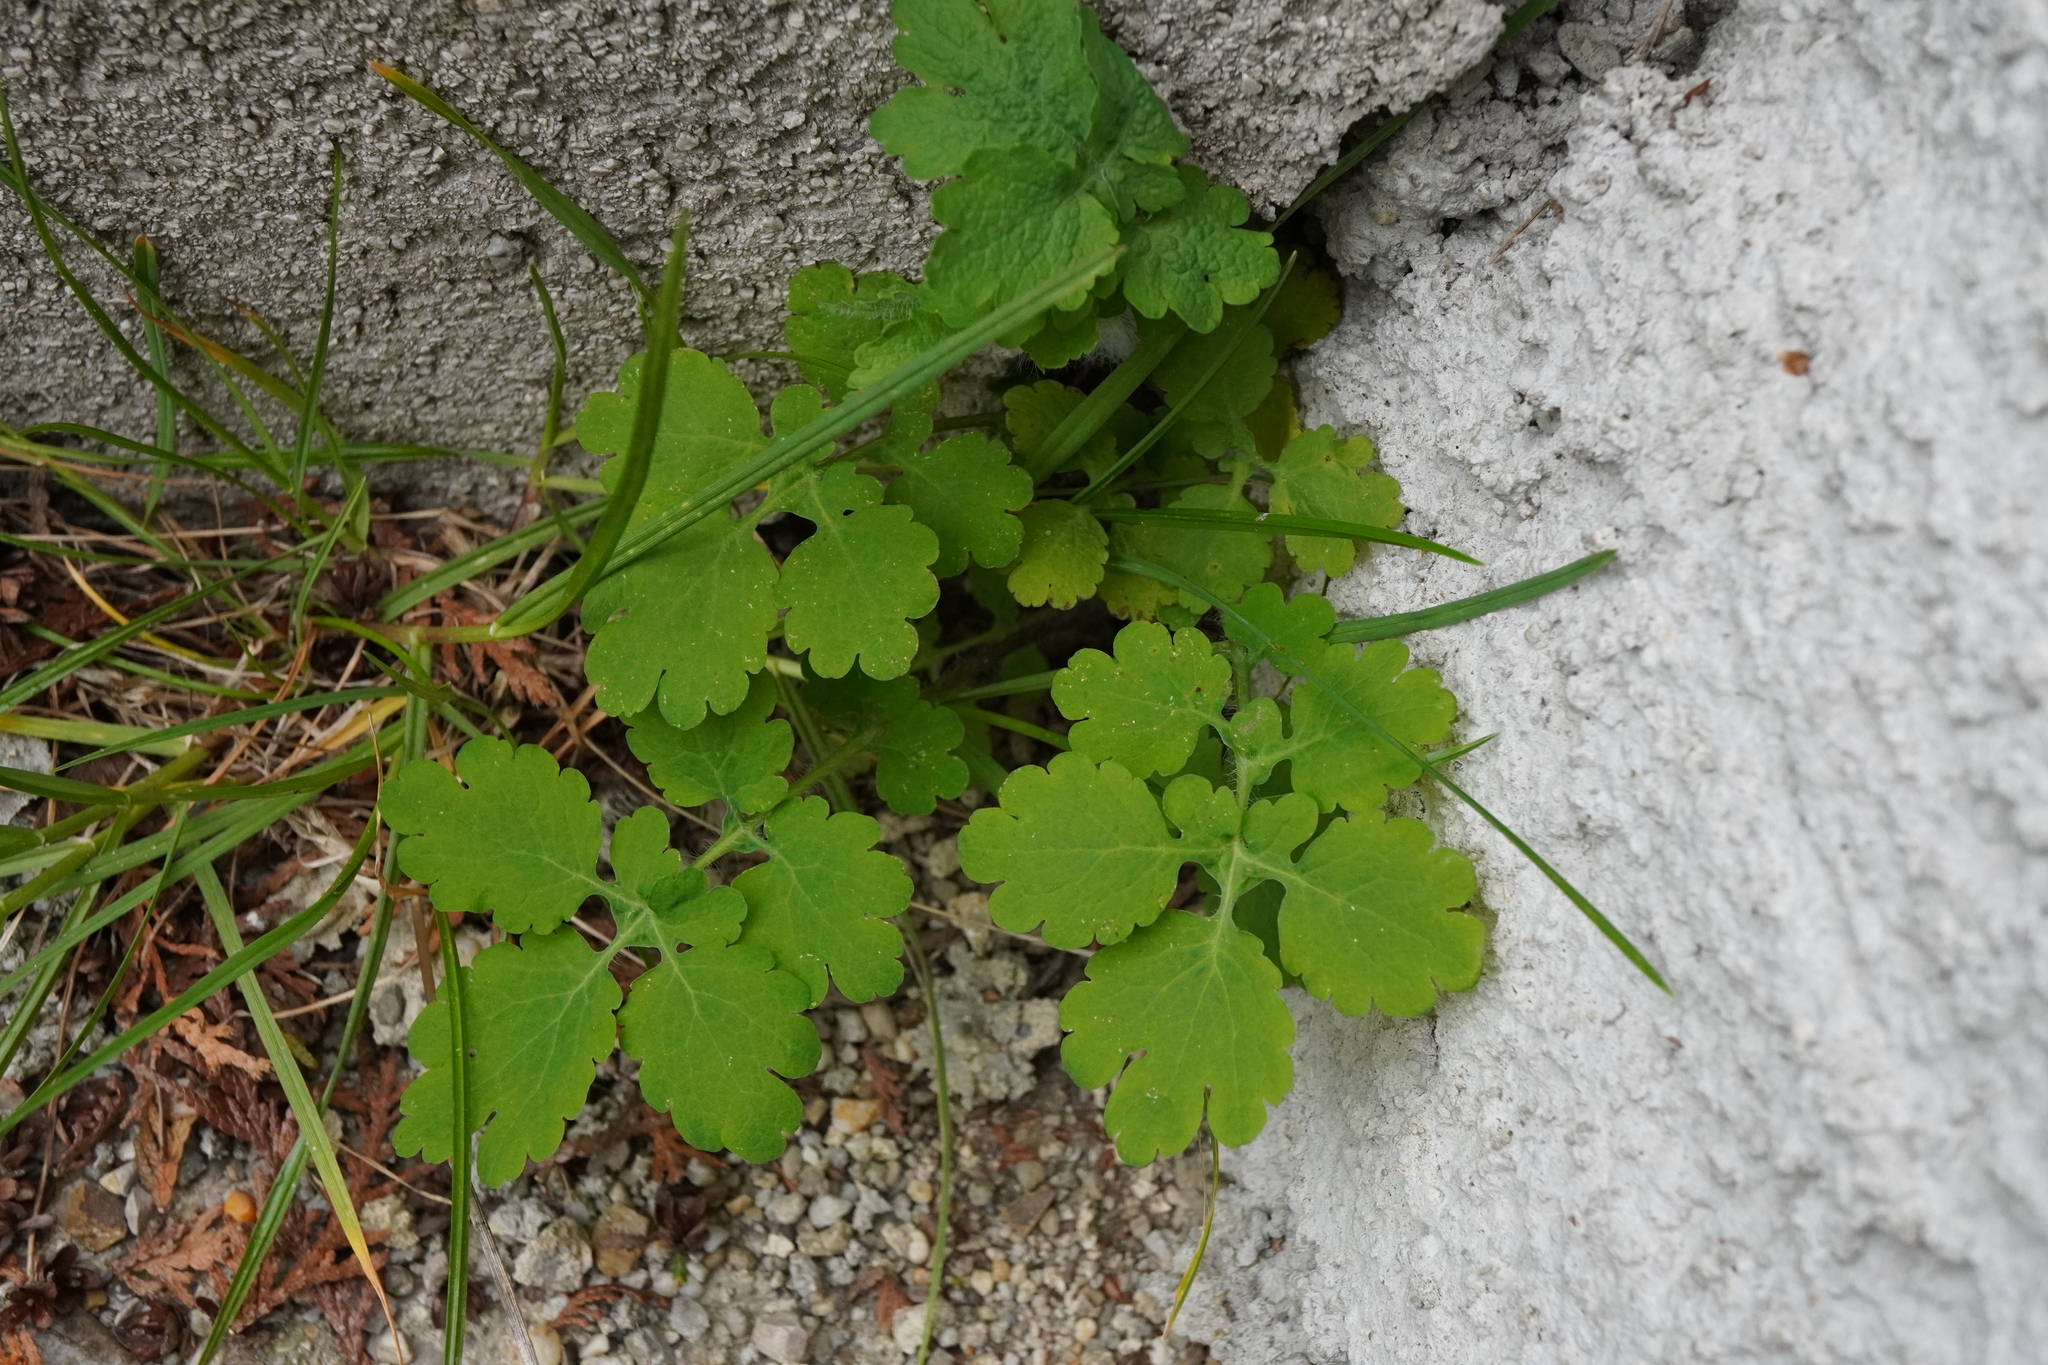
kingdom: Plantae
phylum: Tracheophyta
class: Magnoliopsida
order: Ranunculales
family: Papaveraceae
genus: Chelidonium
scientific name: Chelidonium majus
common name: Greater celandine
